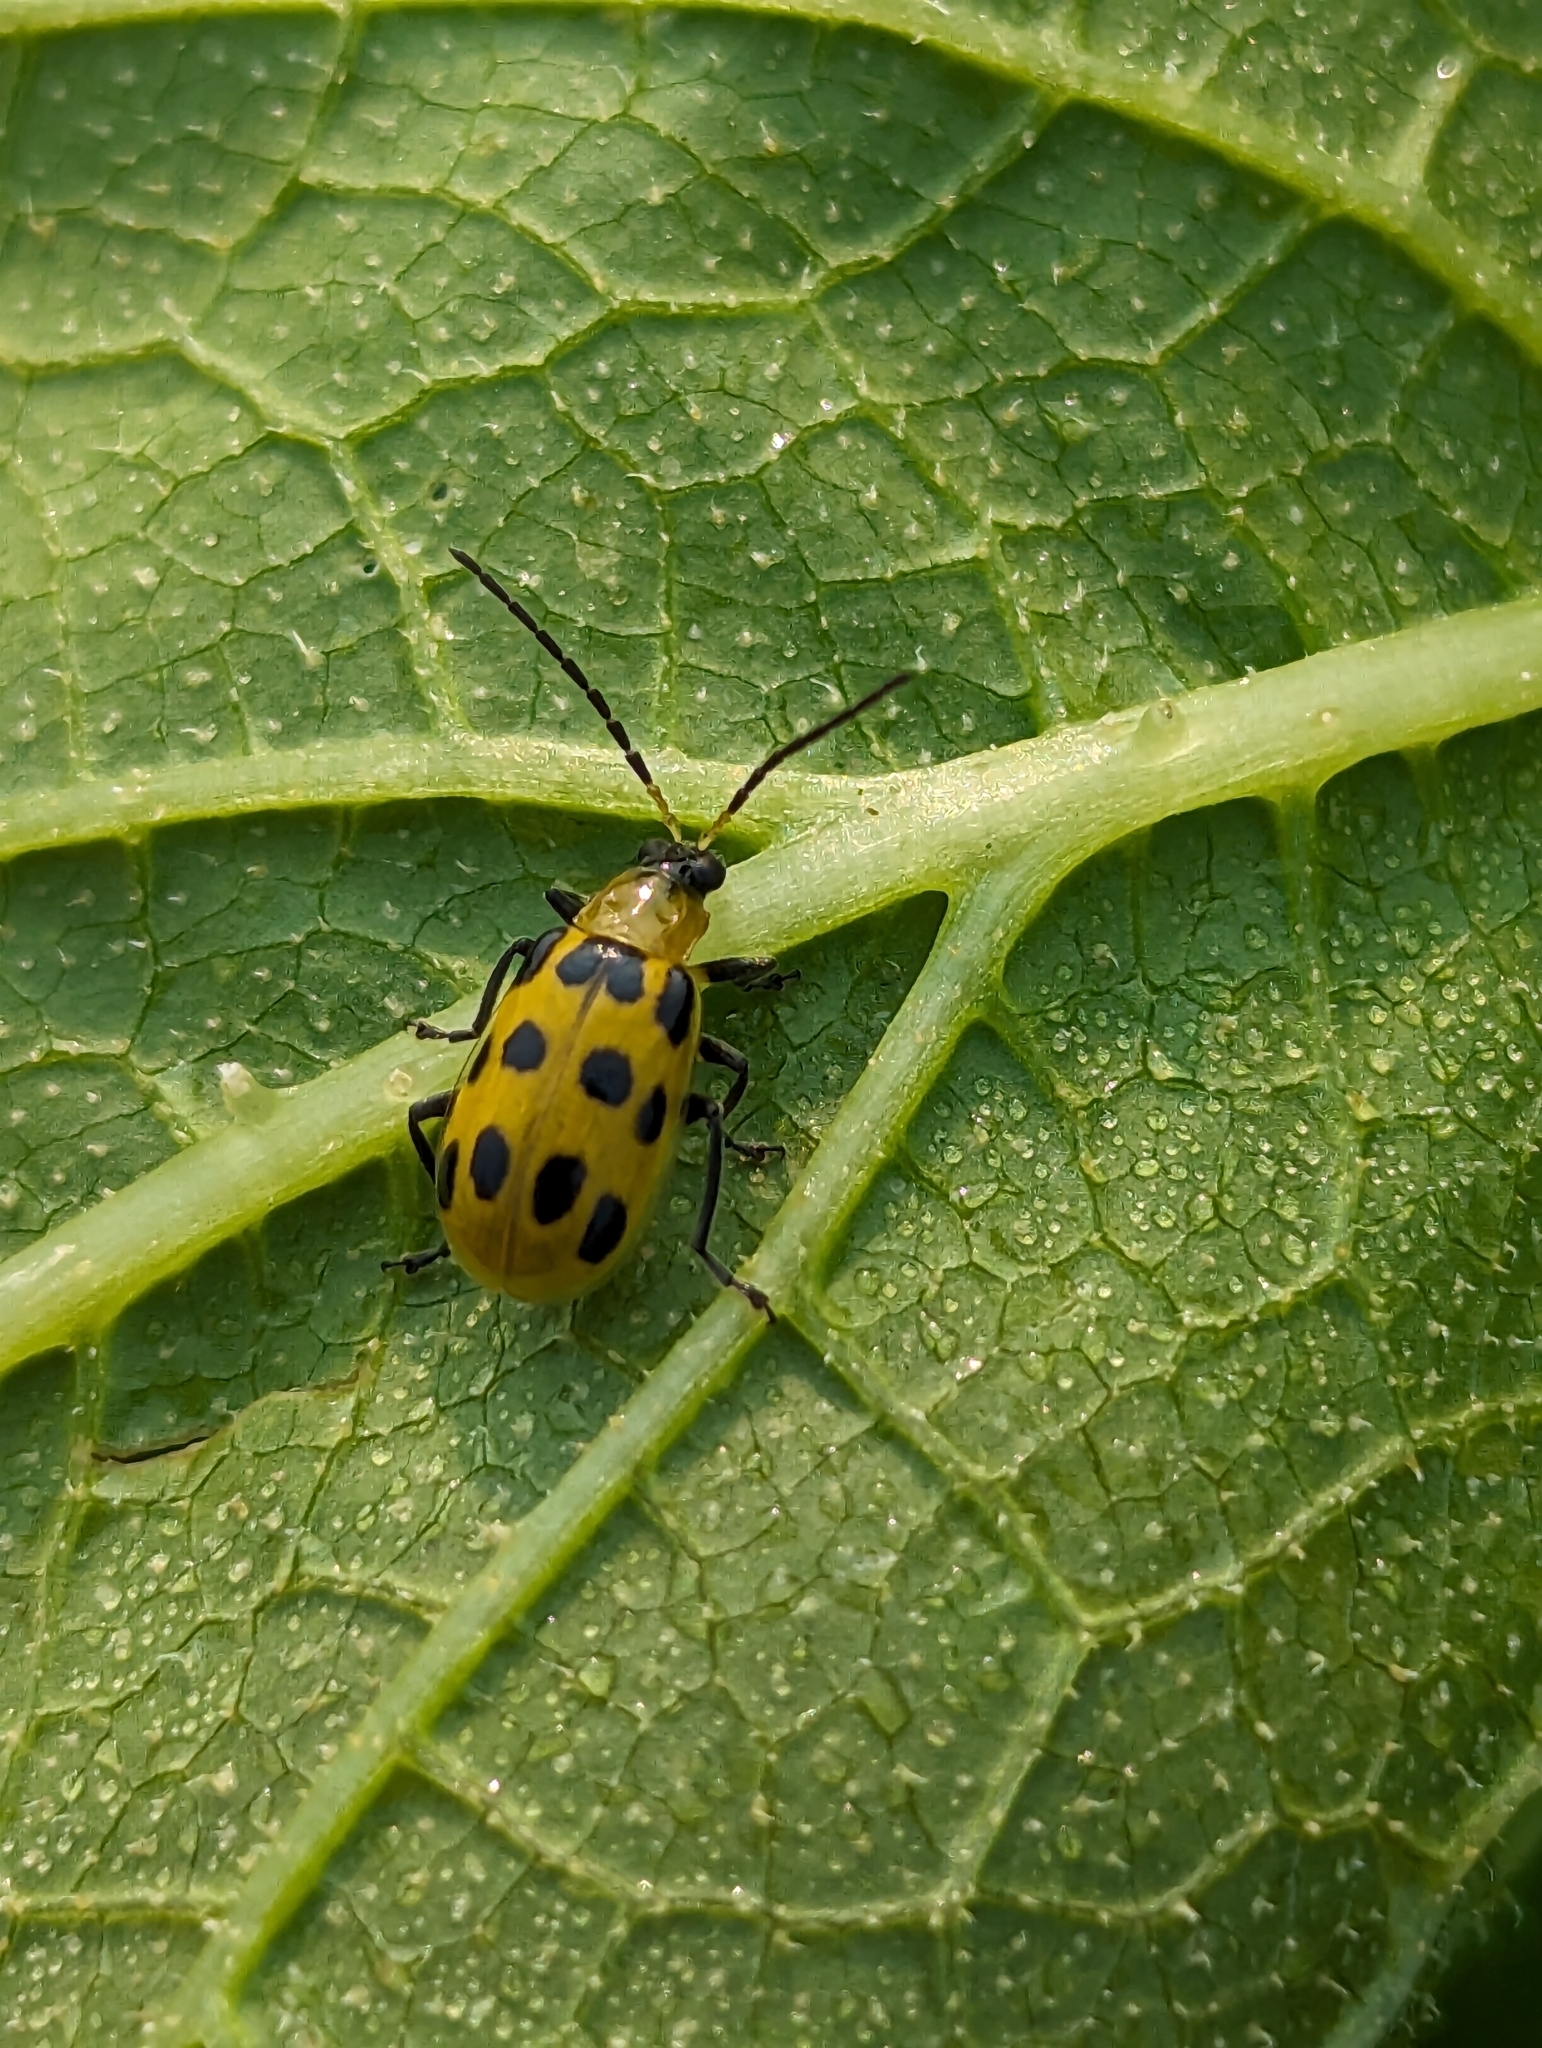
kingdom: Animalia
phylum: Arthropoda
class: Insecta
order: Coleoptera
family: Chrysomelidae
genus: Diabrotica
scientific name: Diabrotica undecimpunctata
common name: Spotted cucumber beetle
